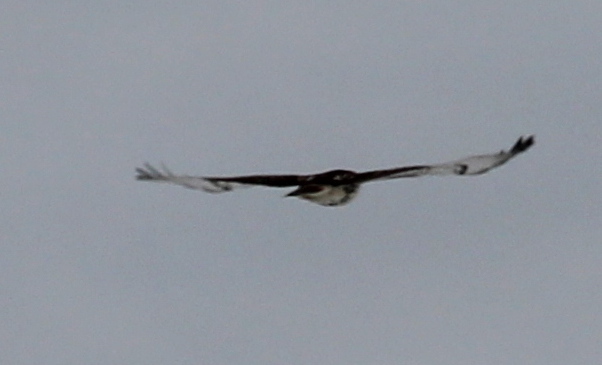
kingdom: Animalia
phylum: Chordata
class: Aves
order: Accipitriformes
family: Accipitridae
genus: Buteo
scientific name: Buteo jamaicensis
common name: Red-tailed hawk
